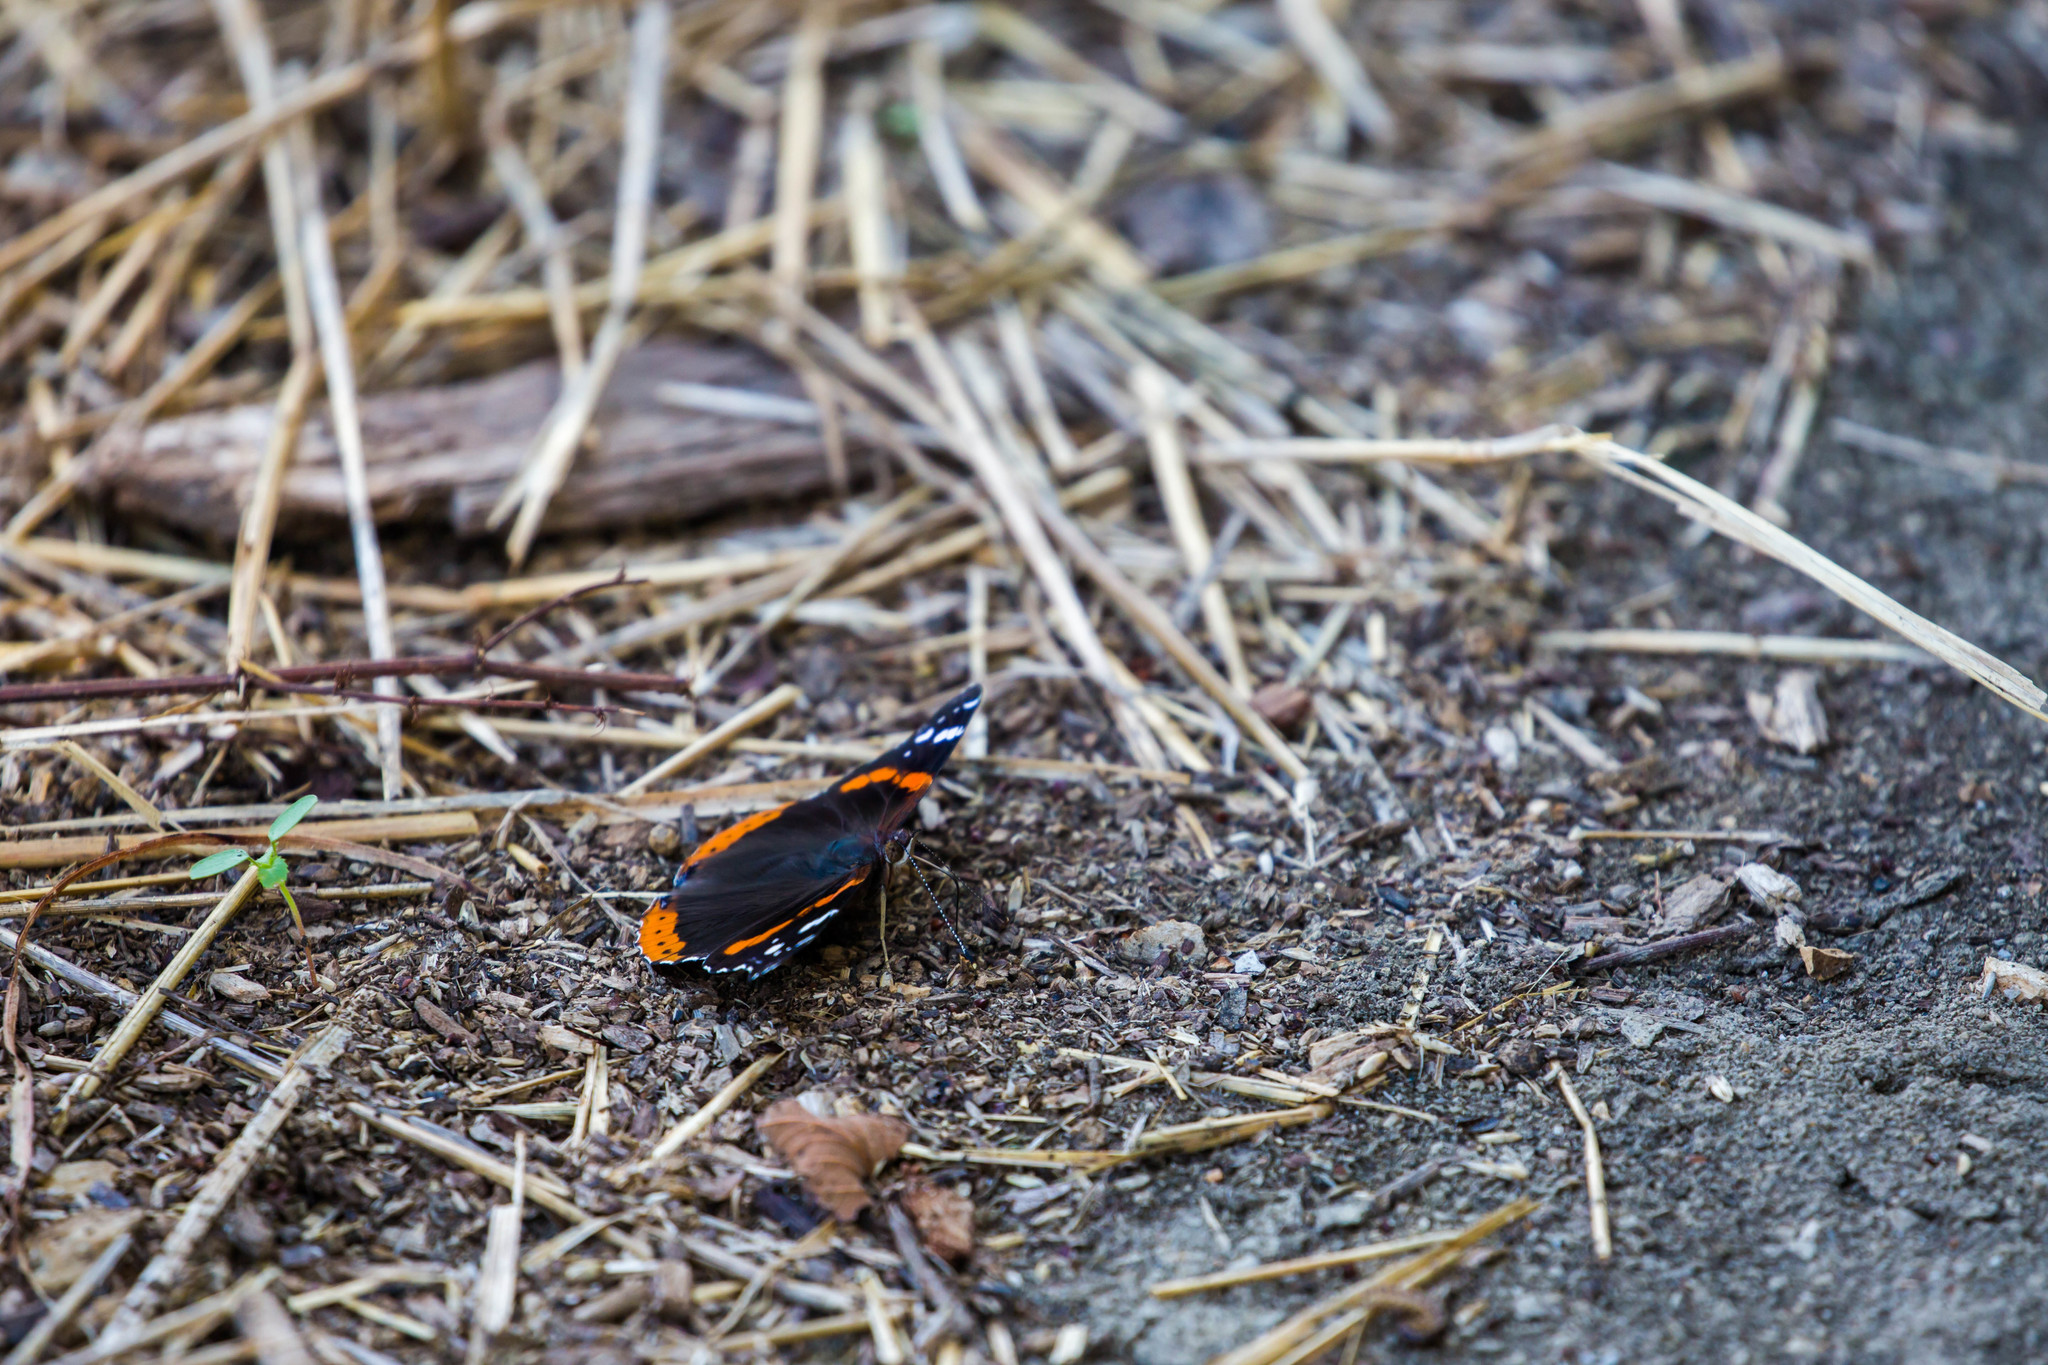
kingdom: Animalia
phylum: Arthropoda
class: Insecta
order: Lepidoptera
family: Nymphalidae
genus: Vanessa
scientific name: Vanessa atalanta
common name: Red admiral
